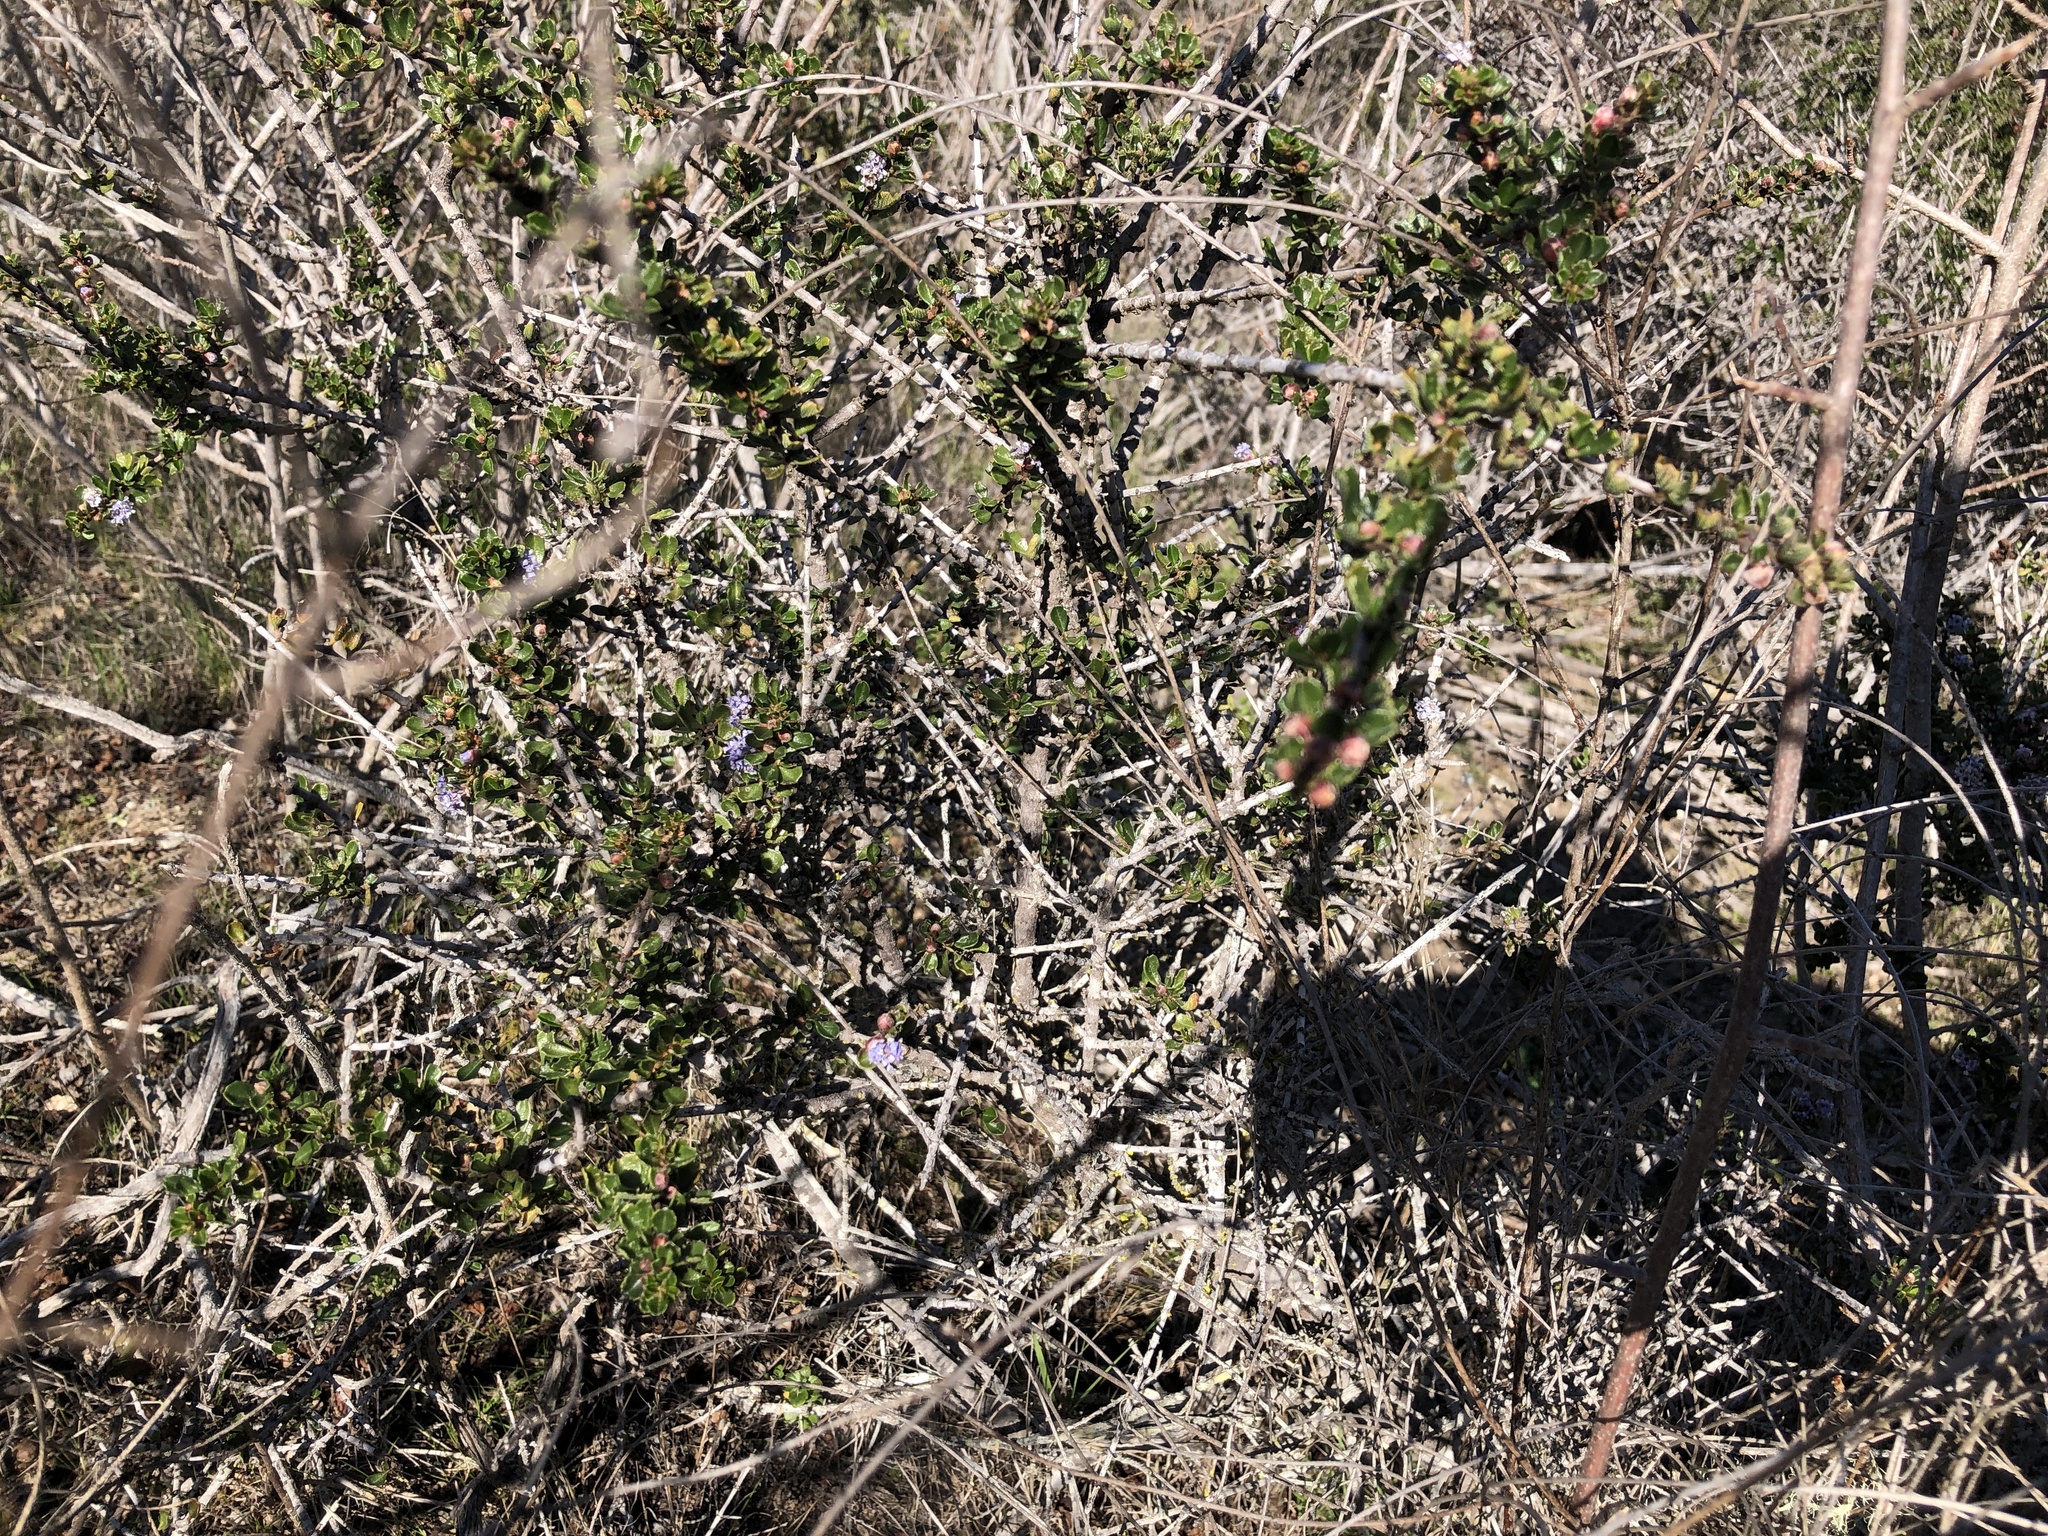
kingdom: Plantae
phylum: Tracheophyta
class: Magnoliopsida
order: Rosales
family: Rhamnaceae
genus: Ceanothus
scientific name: Ceanothus cuneatus
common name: Cuneate ceanothus
